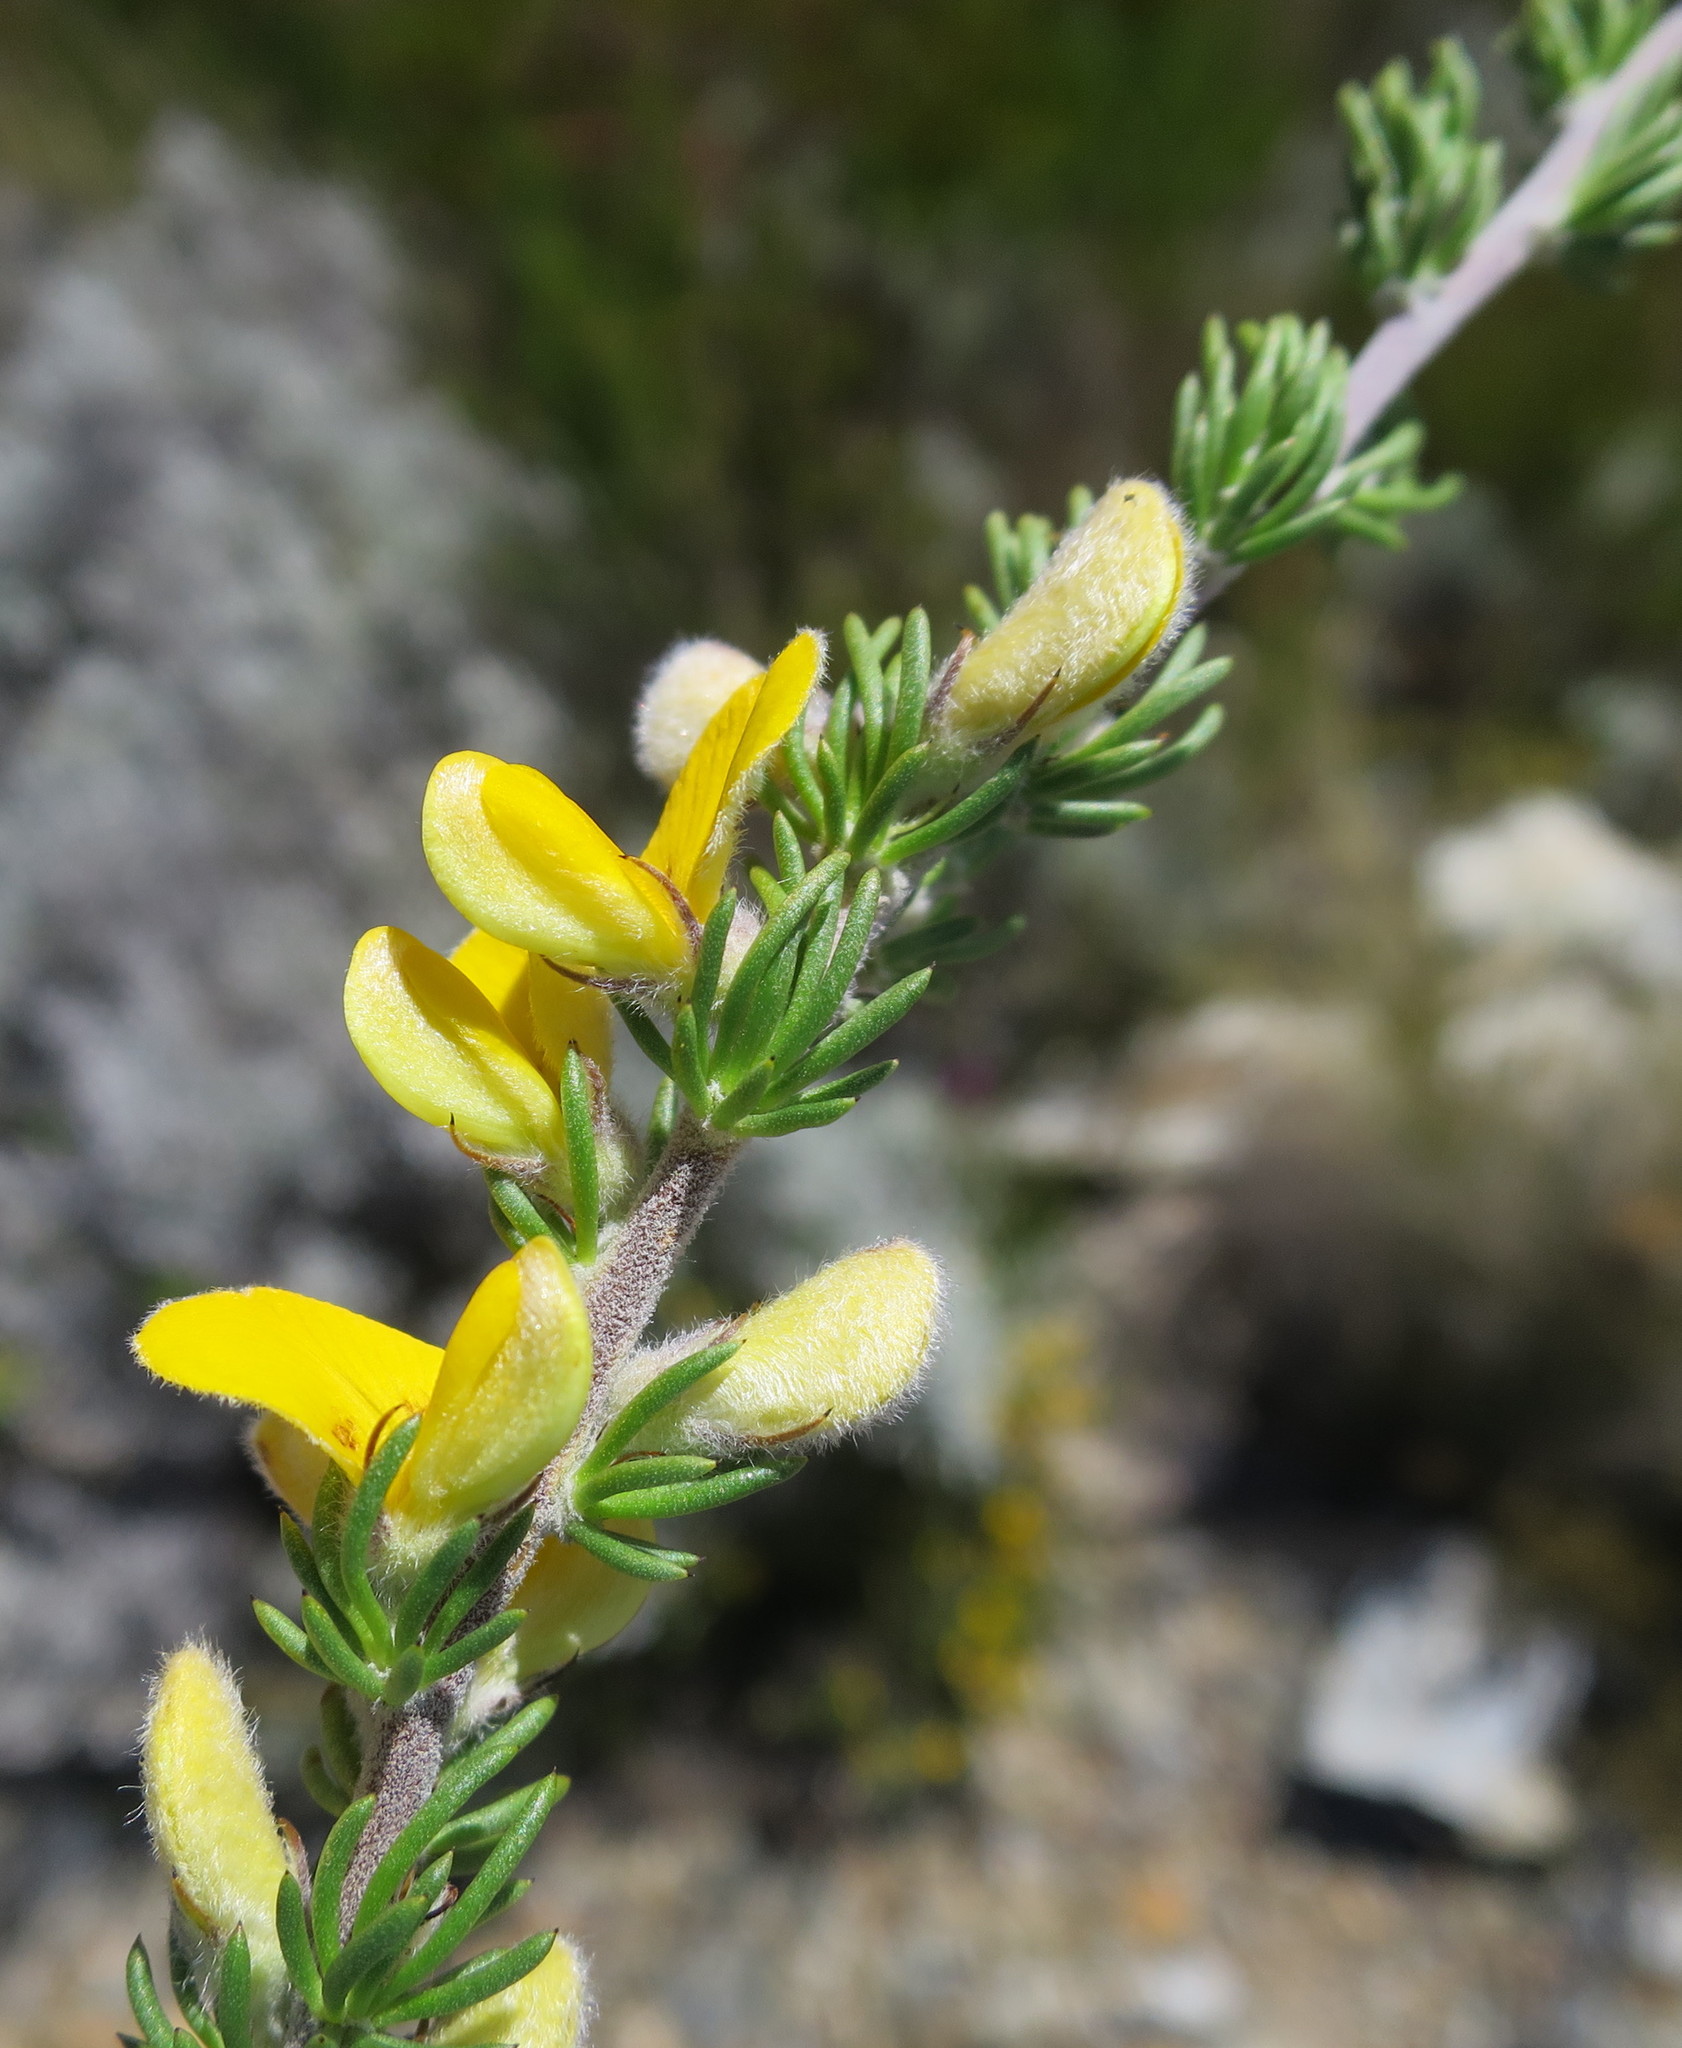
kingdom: Plantae
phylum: Tracheophyta
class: Magnoliopsida
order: Fabales
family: Fabaceae
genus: Aspalathus
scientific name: Aspalathus congesta
